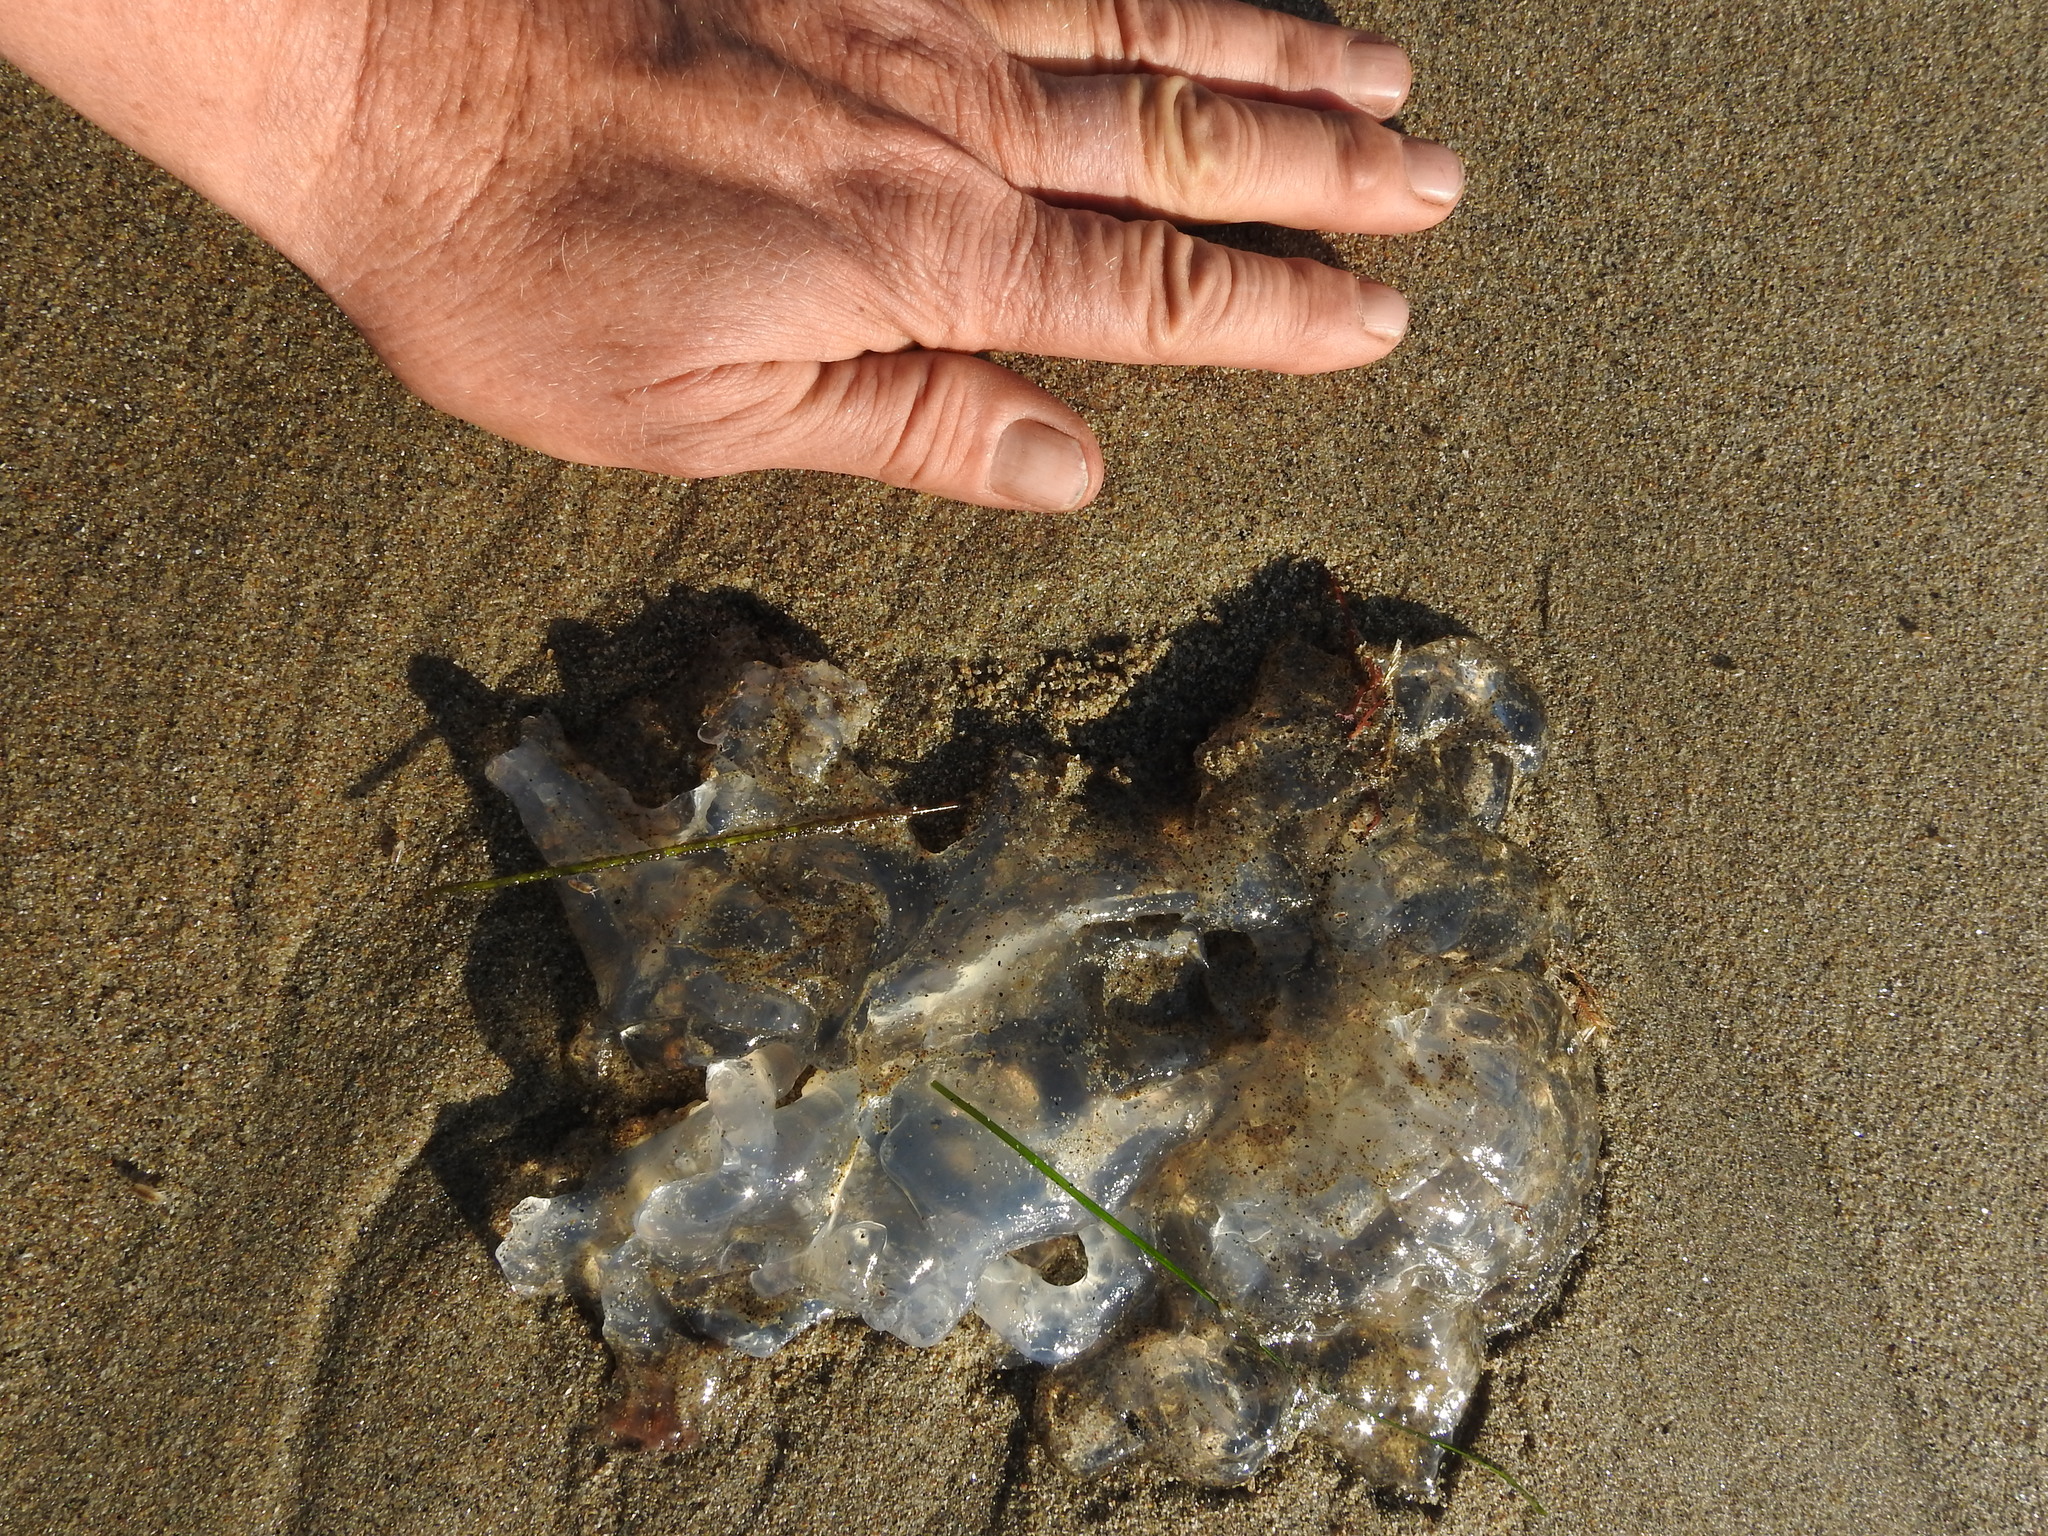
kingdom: Animalia
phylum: Cnidaria
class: Scyphozoa
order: Semaeostomeae
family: Ulmaridae
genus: Aurelia
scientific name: Aurelia labiata
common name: Pacific moon jelly
